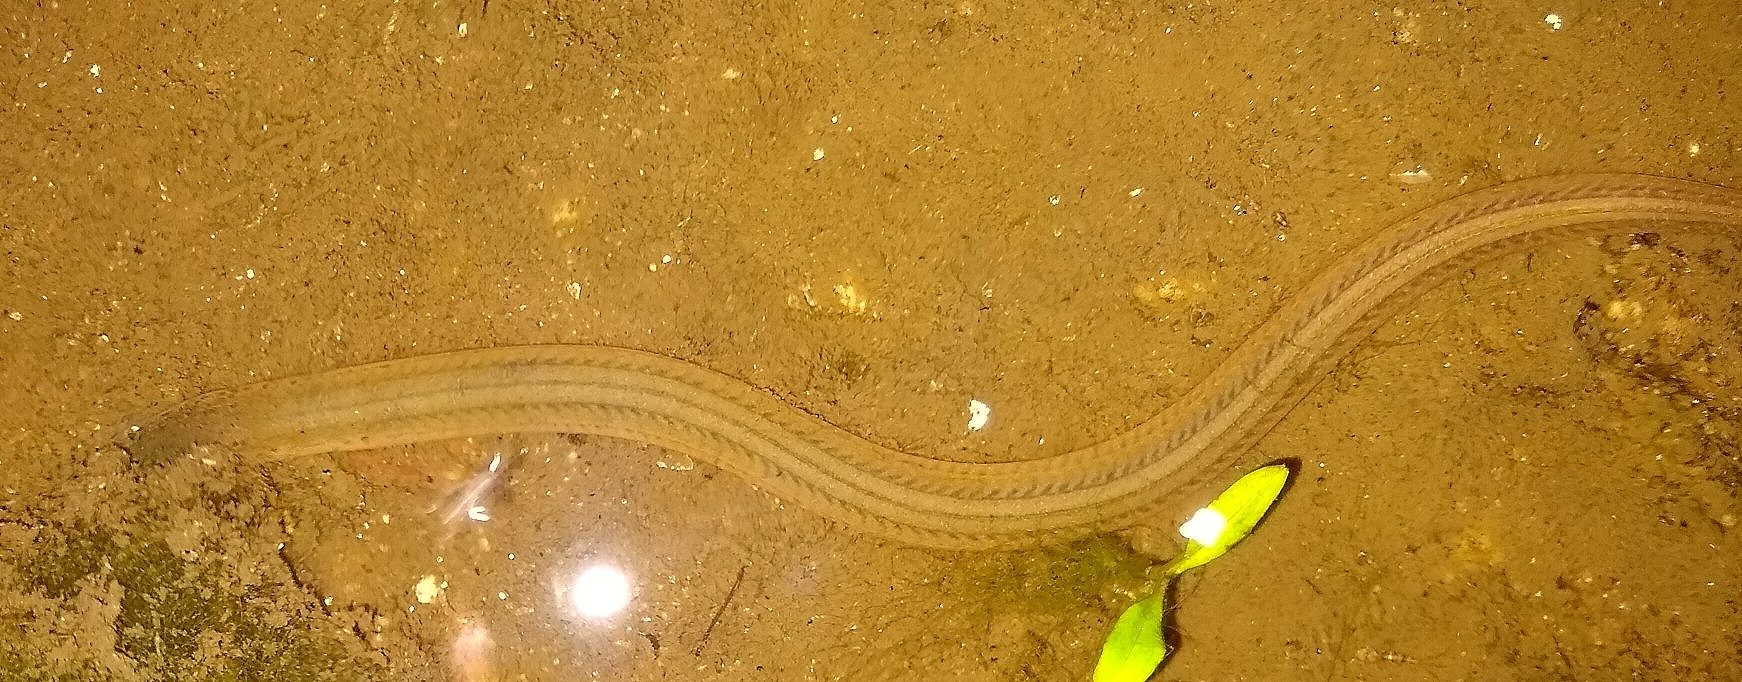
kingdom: Animalia
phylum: Chordata
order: Synbranchiformes
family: Synbranchidae
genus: Synbranchus
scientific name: Synbranchus marmoratus
